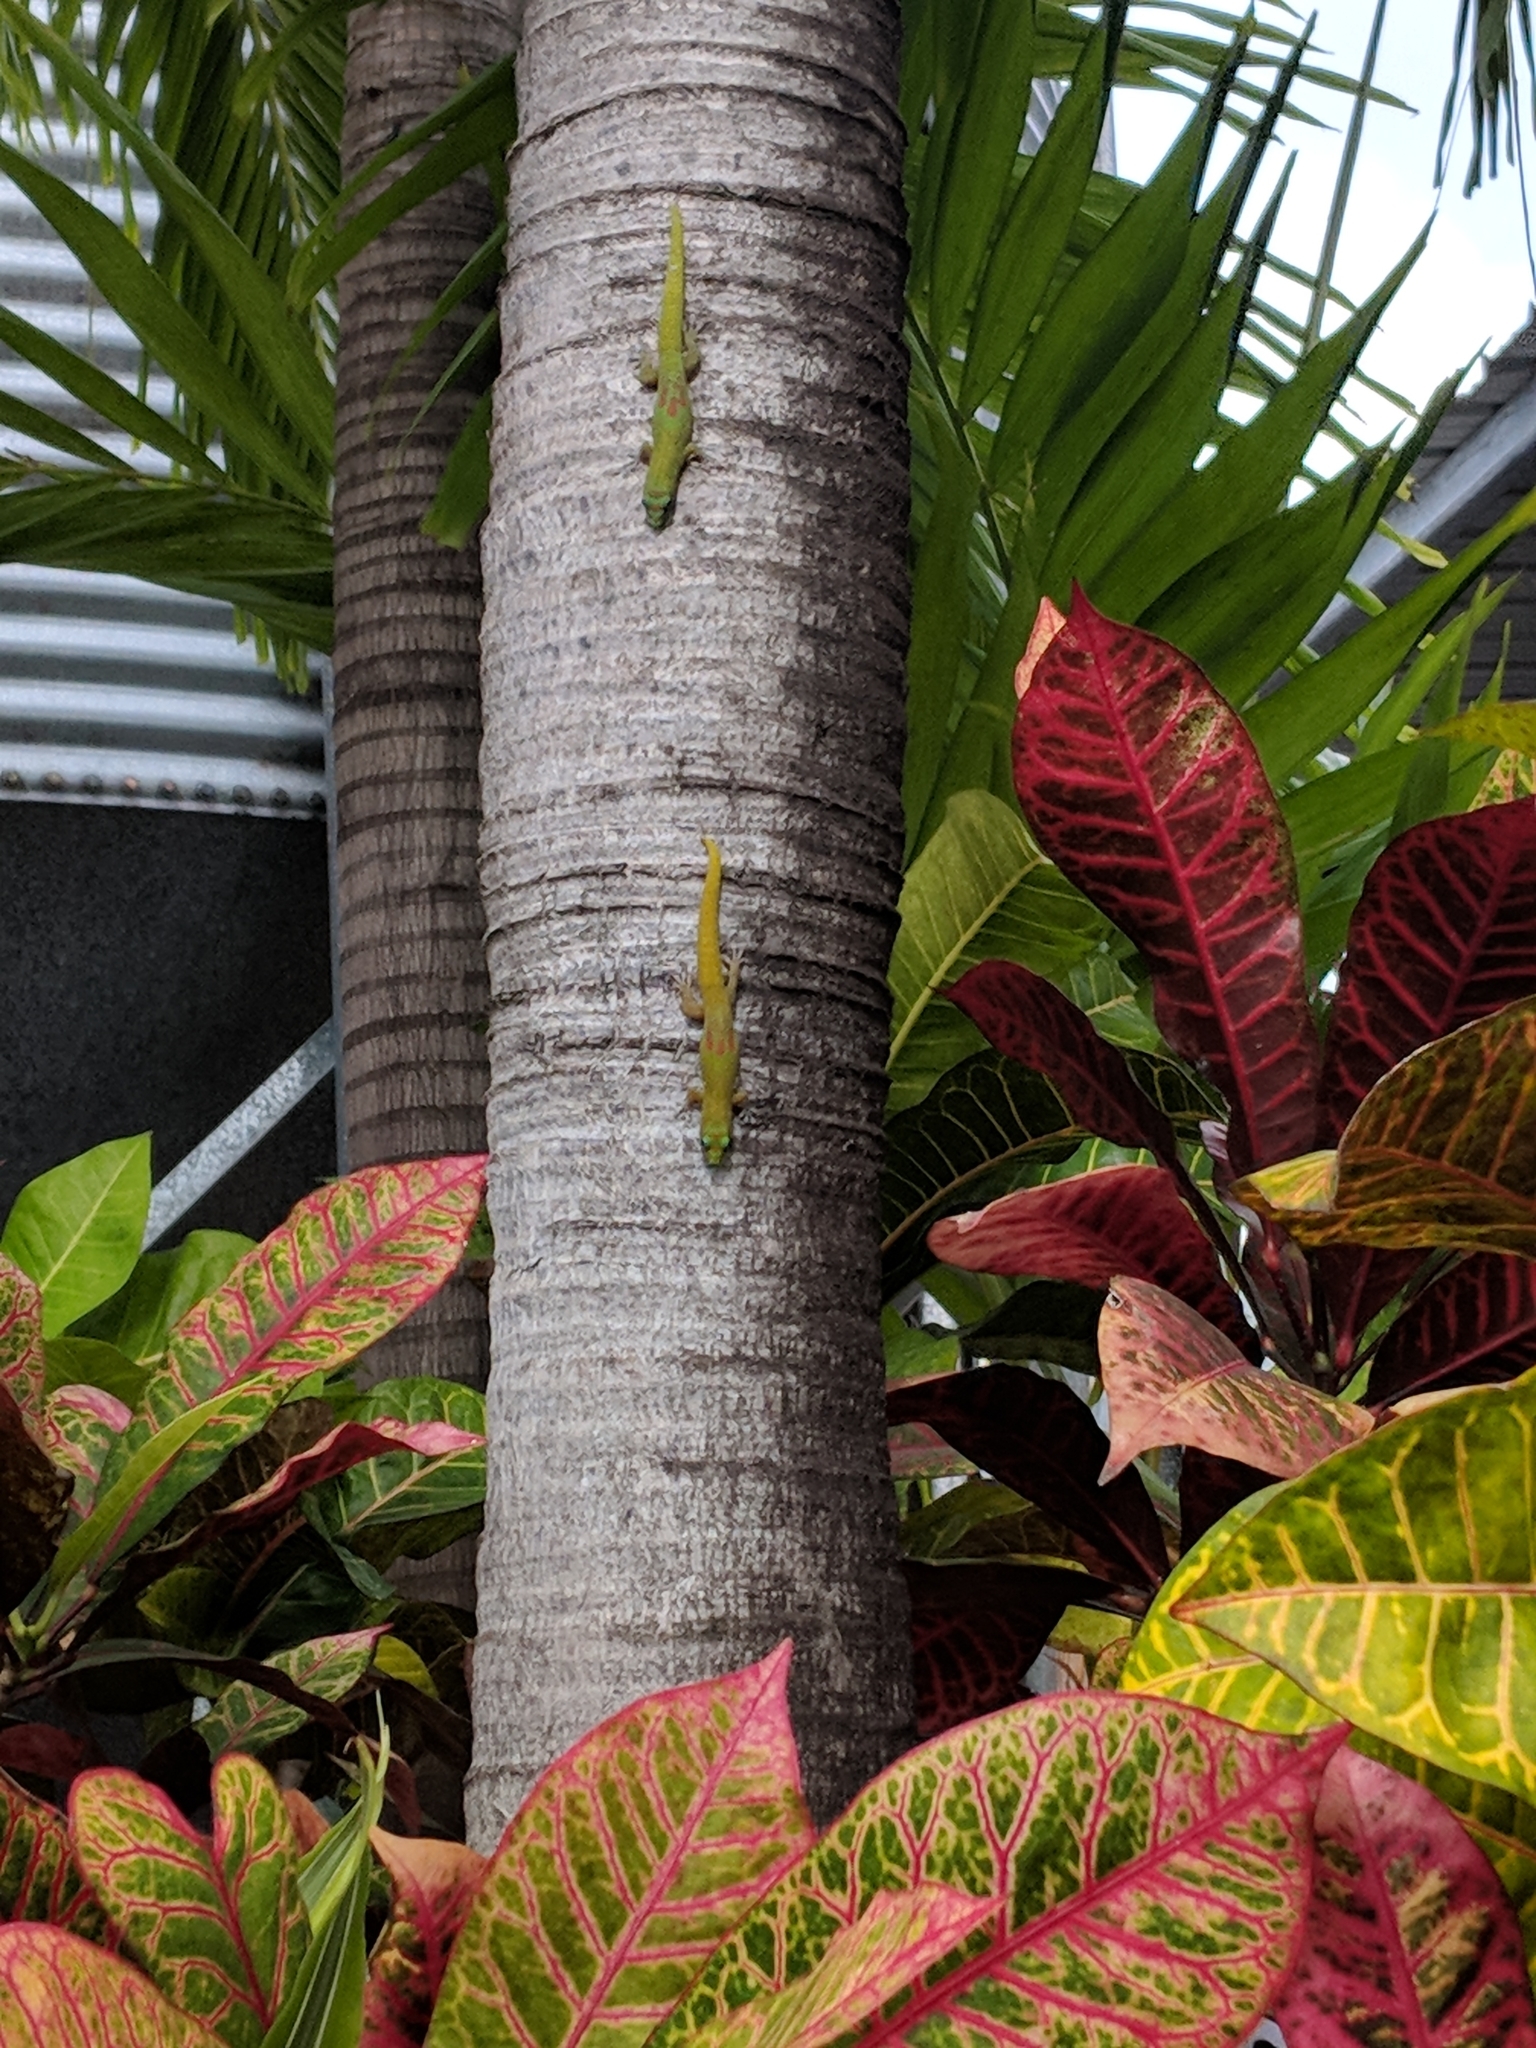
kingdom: Animalia
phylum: Chordata
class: Squamata
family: Gekkonidae
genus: Phelsuma
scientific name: Phelsuma laticauda
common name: Gold dust day gecko
